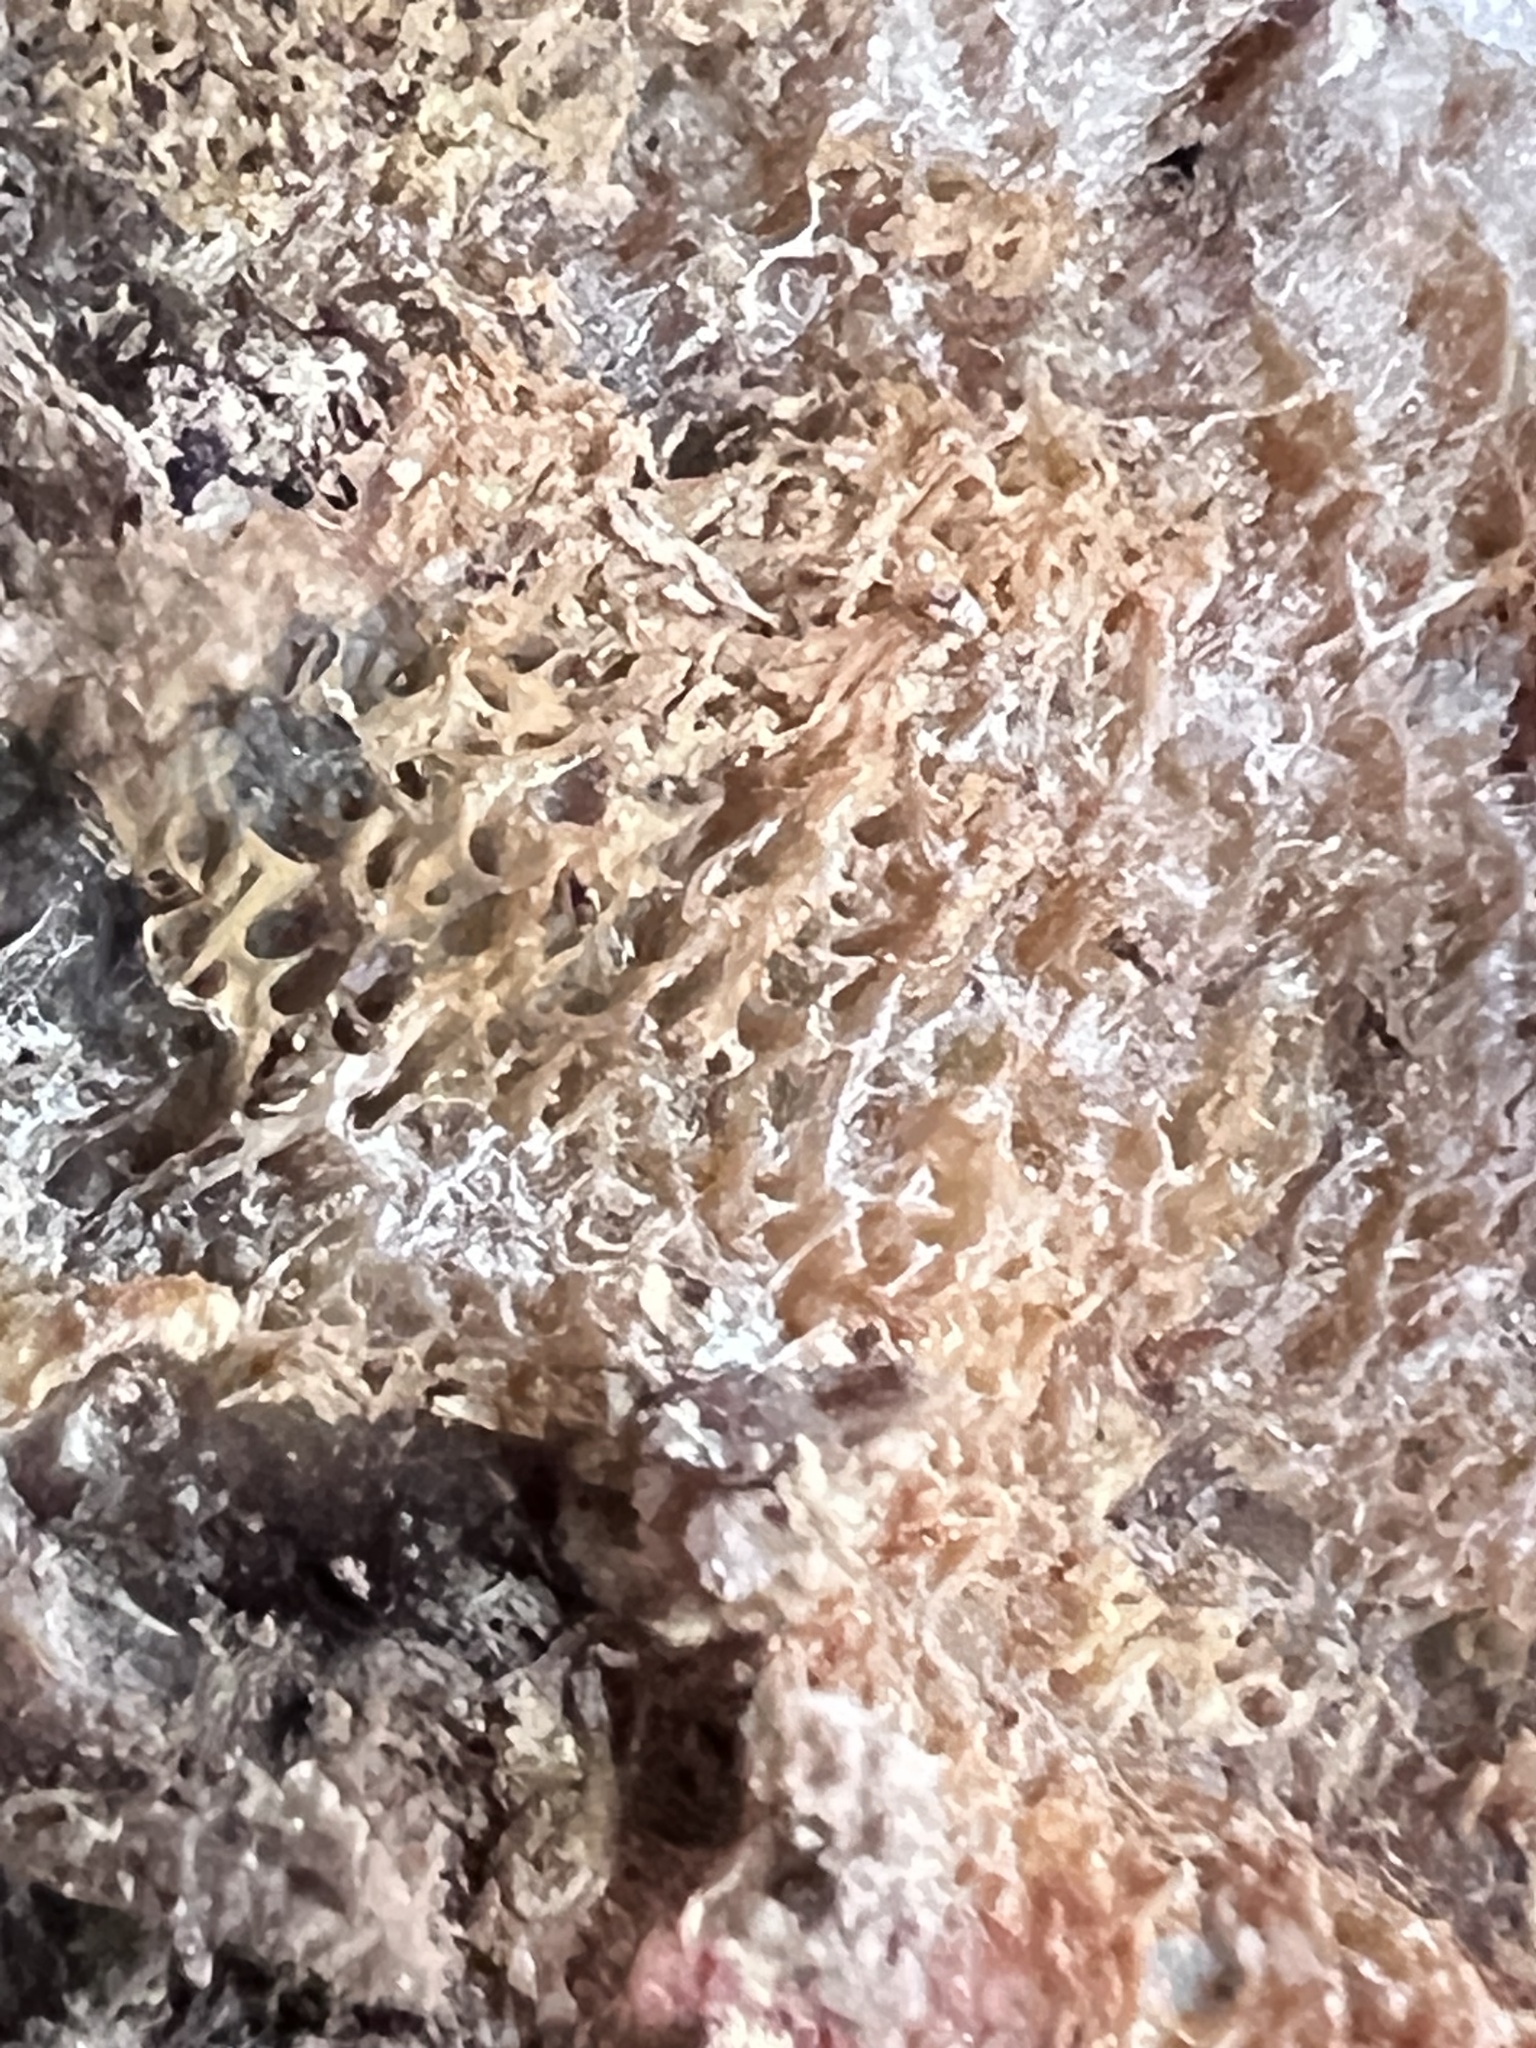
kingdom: Fungi
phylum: Basidiomycota
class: Agaricomycetes
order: Agaricales
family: Radulomycetaceae
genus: Radulomyces
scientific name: Radulomyces copelandii
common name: Asian beauty
